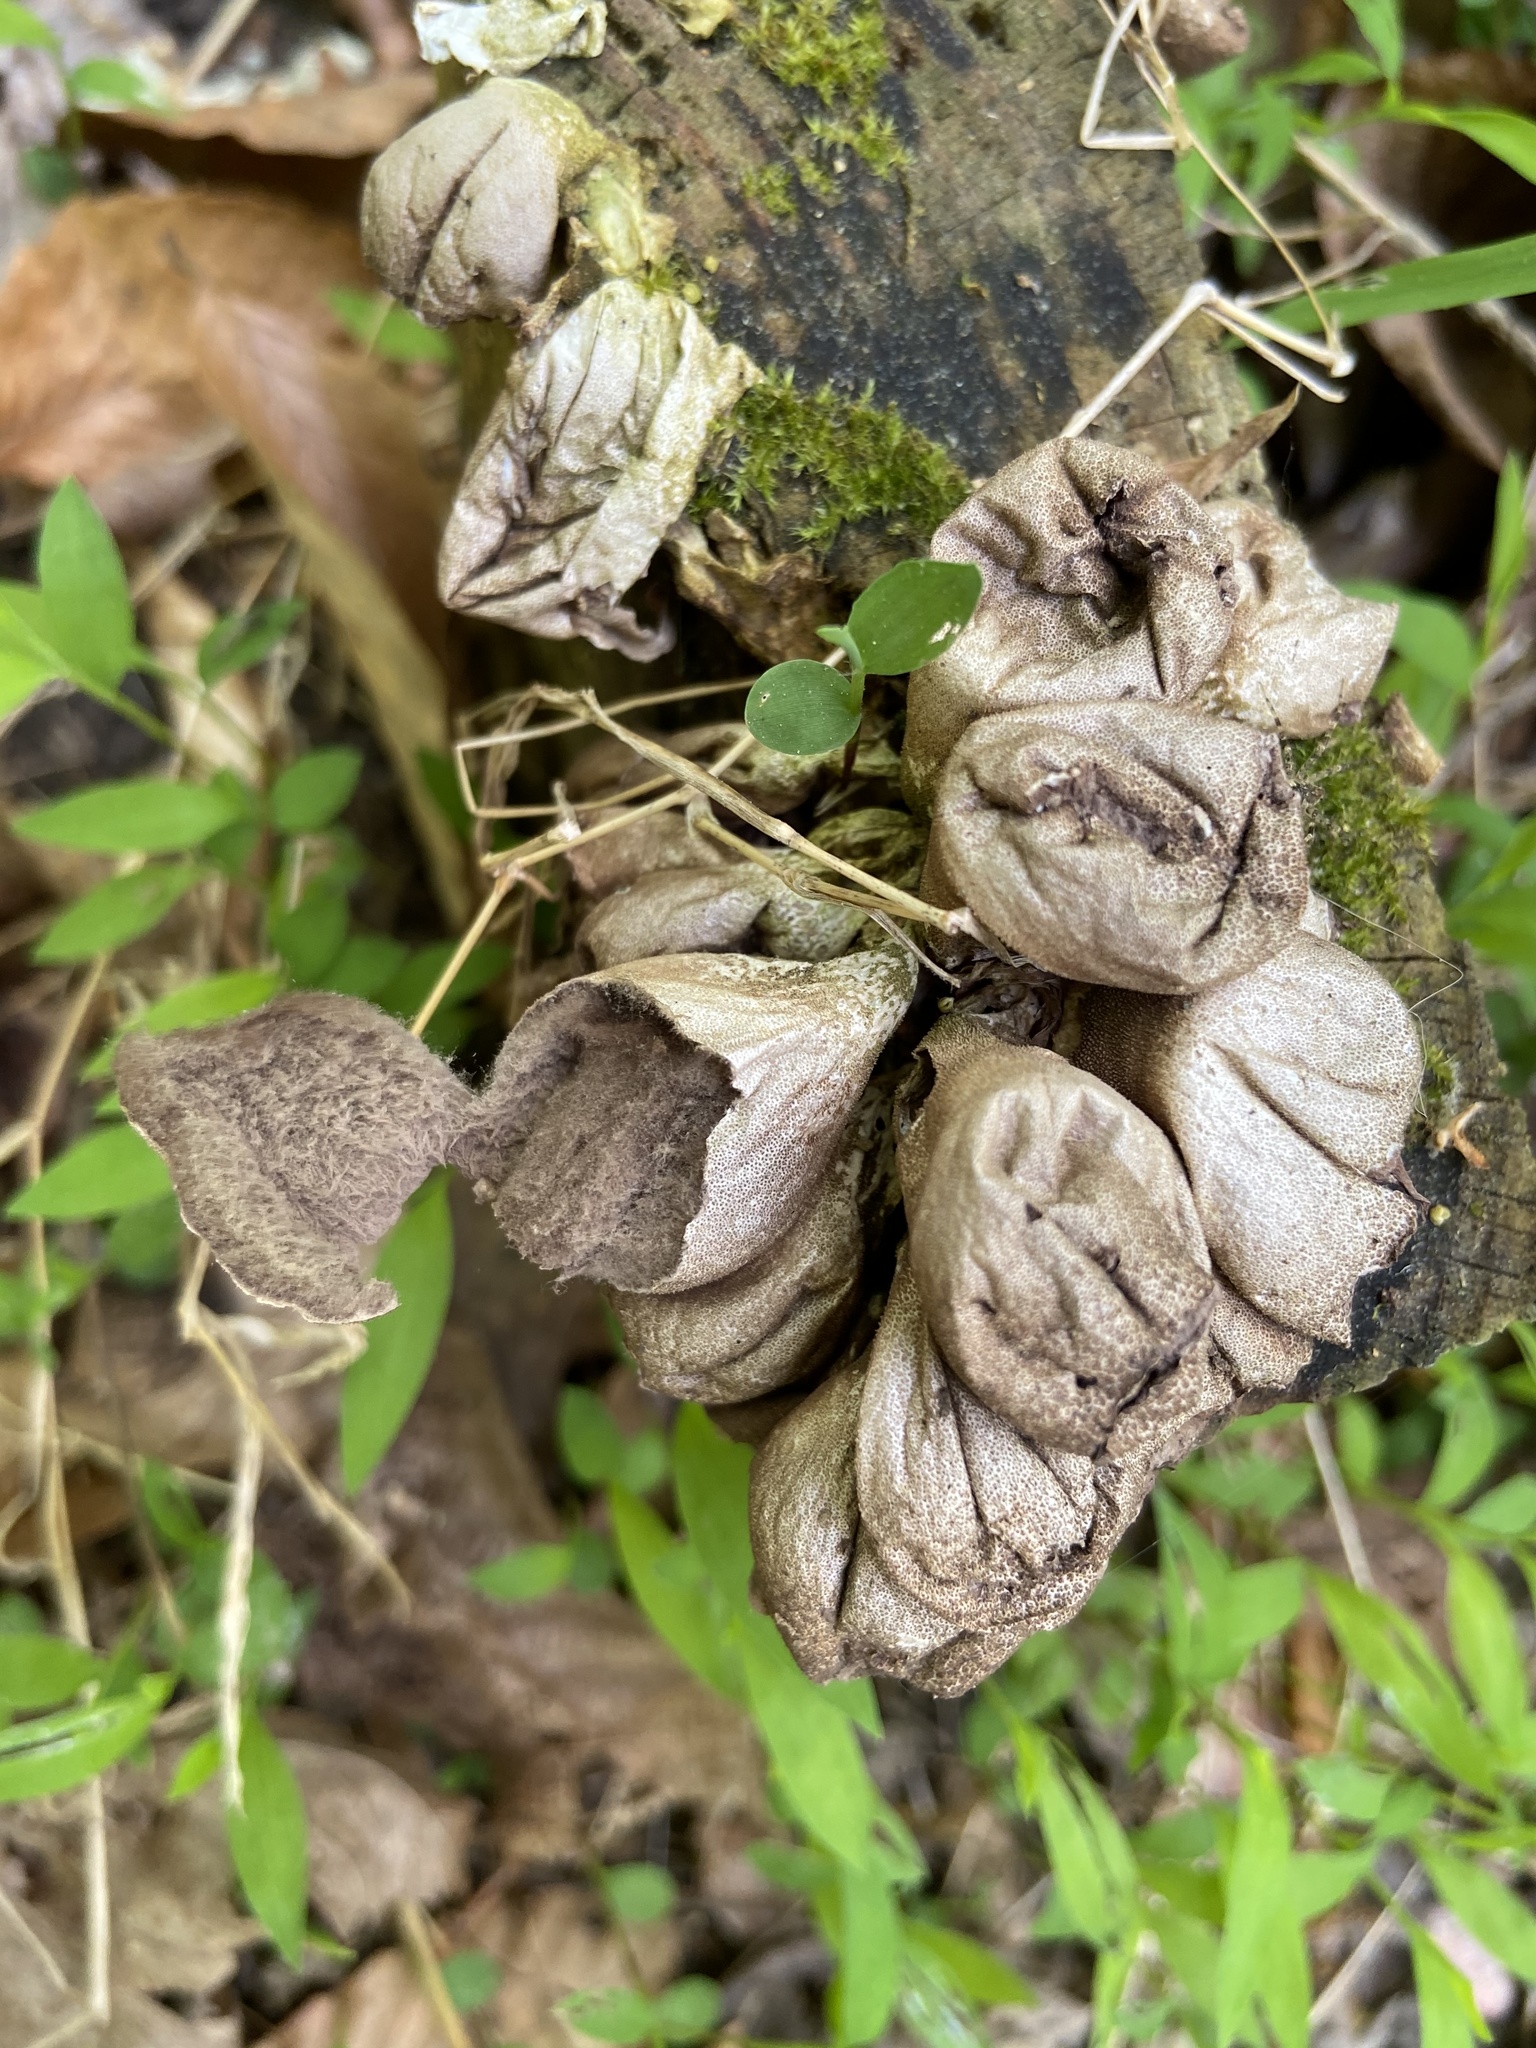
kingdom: Fungi
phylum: Basidiomycota
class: Agaricomycetes
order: Agaricales
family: Lycoperdaceae
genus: Apioperdon
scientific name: Apioperdon pyriforme
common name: Pear-shaped puffball
